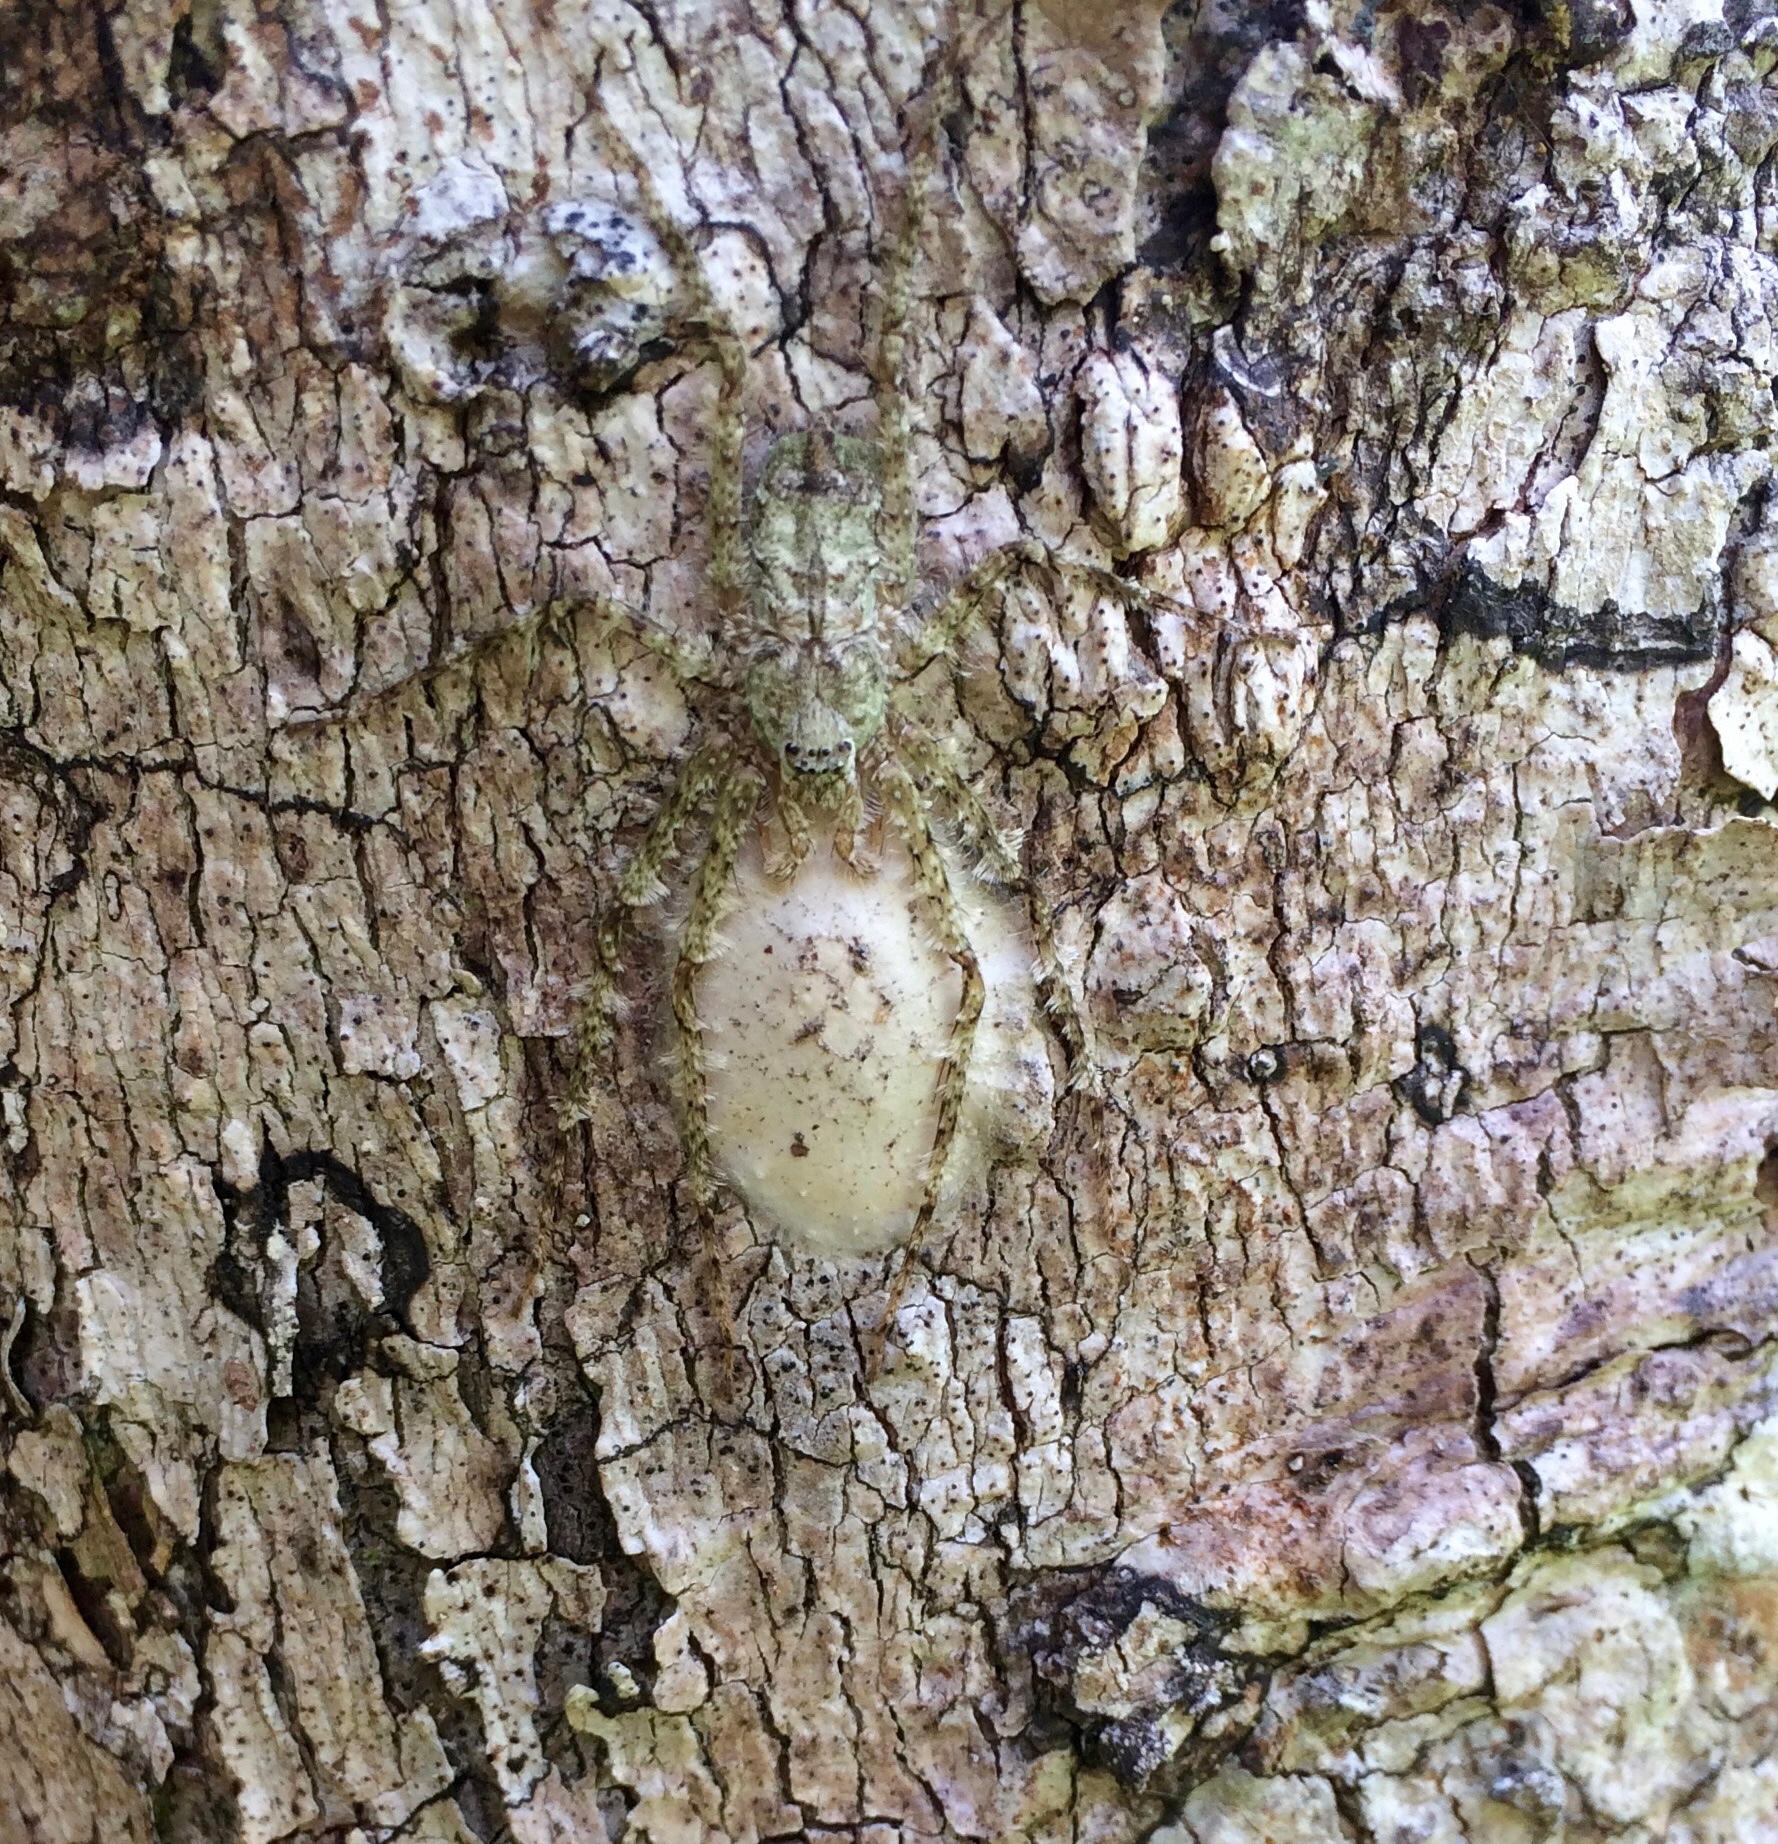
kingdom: Animalia
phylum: Arthropoda
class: Arachnida
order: Araneae
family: Sparassidae
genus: Pandercetes
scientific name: Pandercetes gracilis
